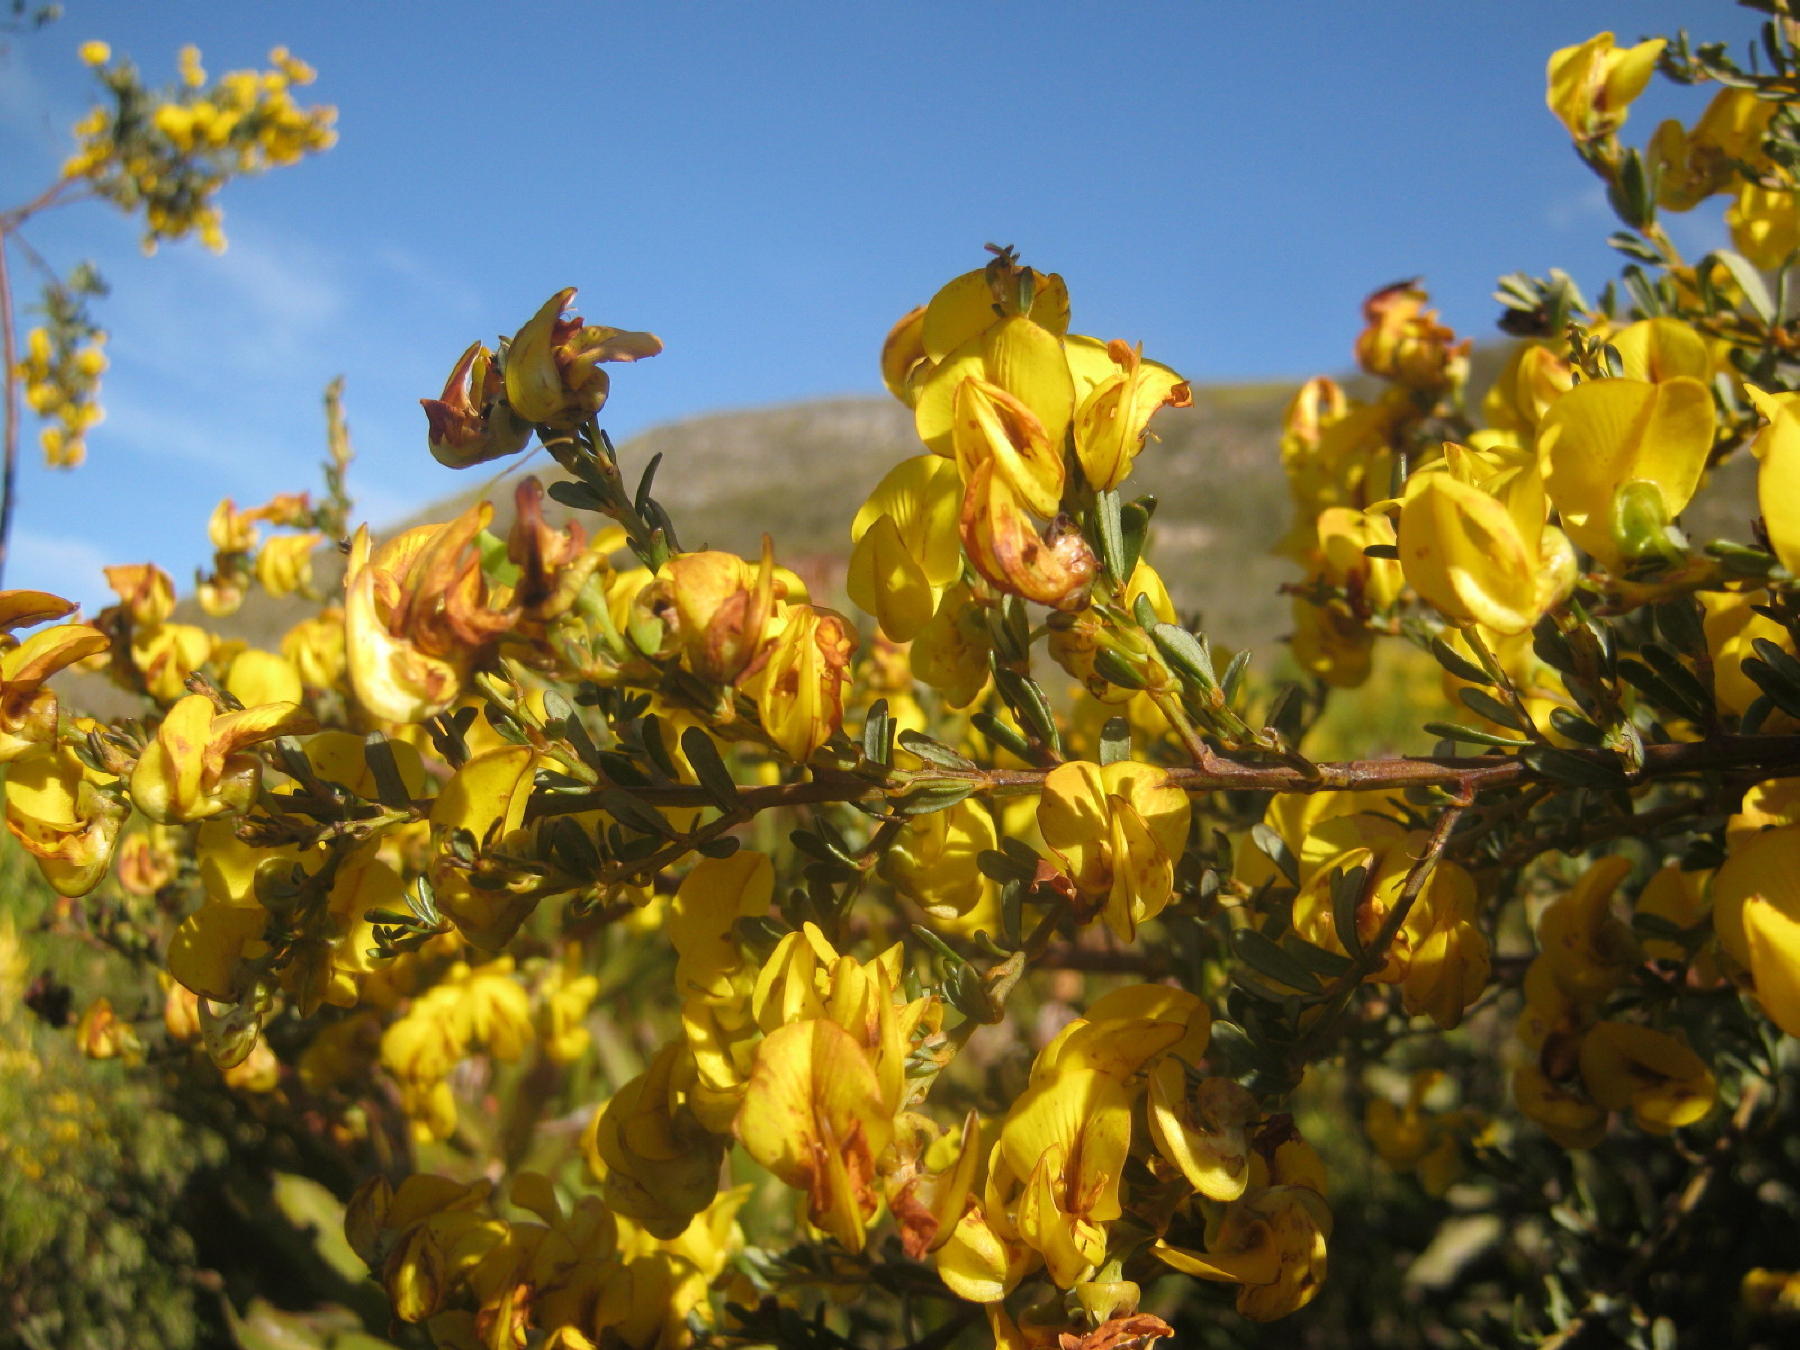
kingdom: Plantae
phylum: Tracheophyta
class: Magnoliopsida
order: Fabales
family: Fabaceae
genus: Cyclopia
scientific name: Cyclopia subternata
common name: Honeybush tea
